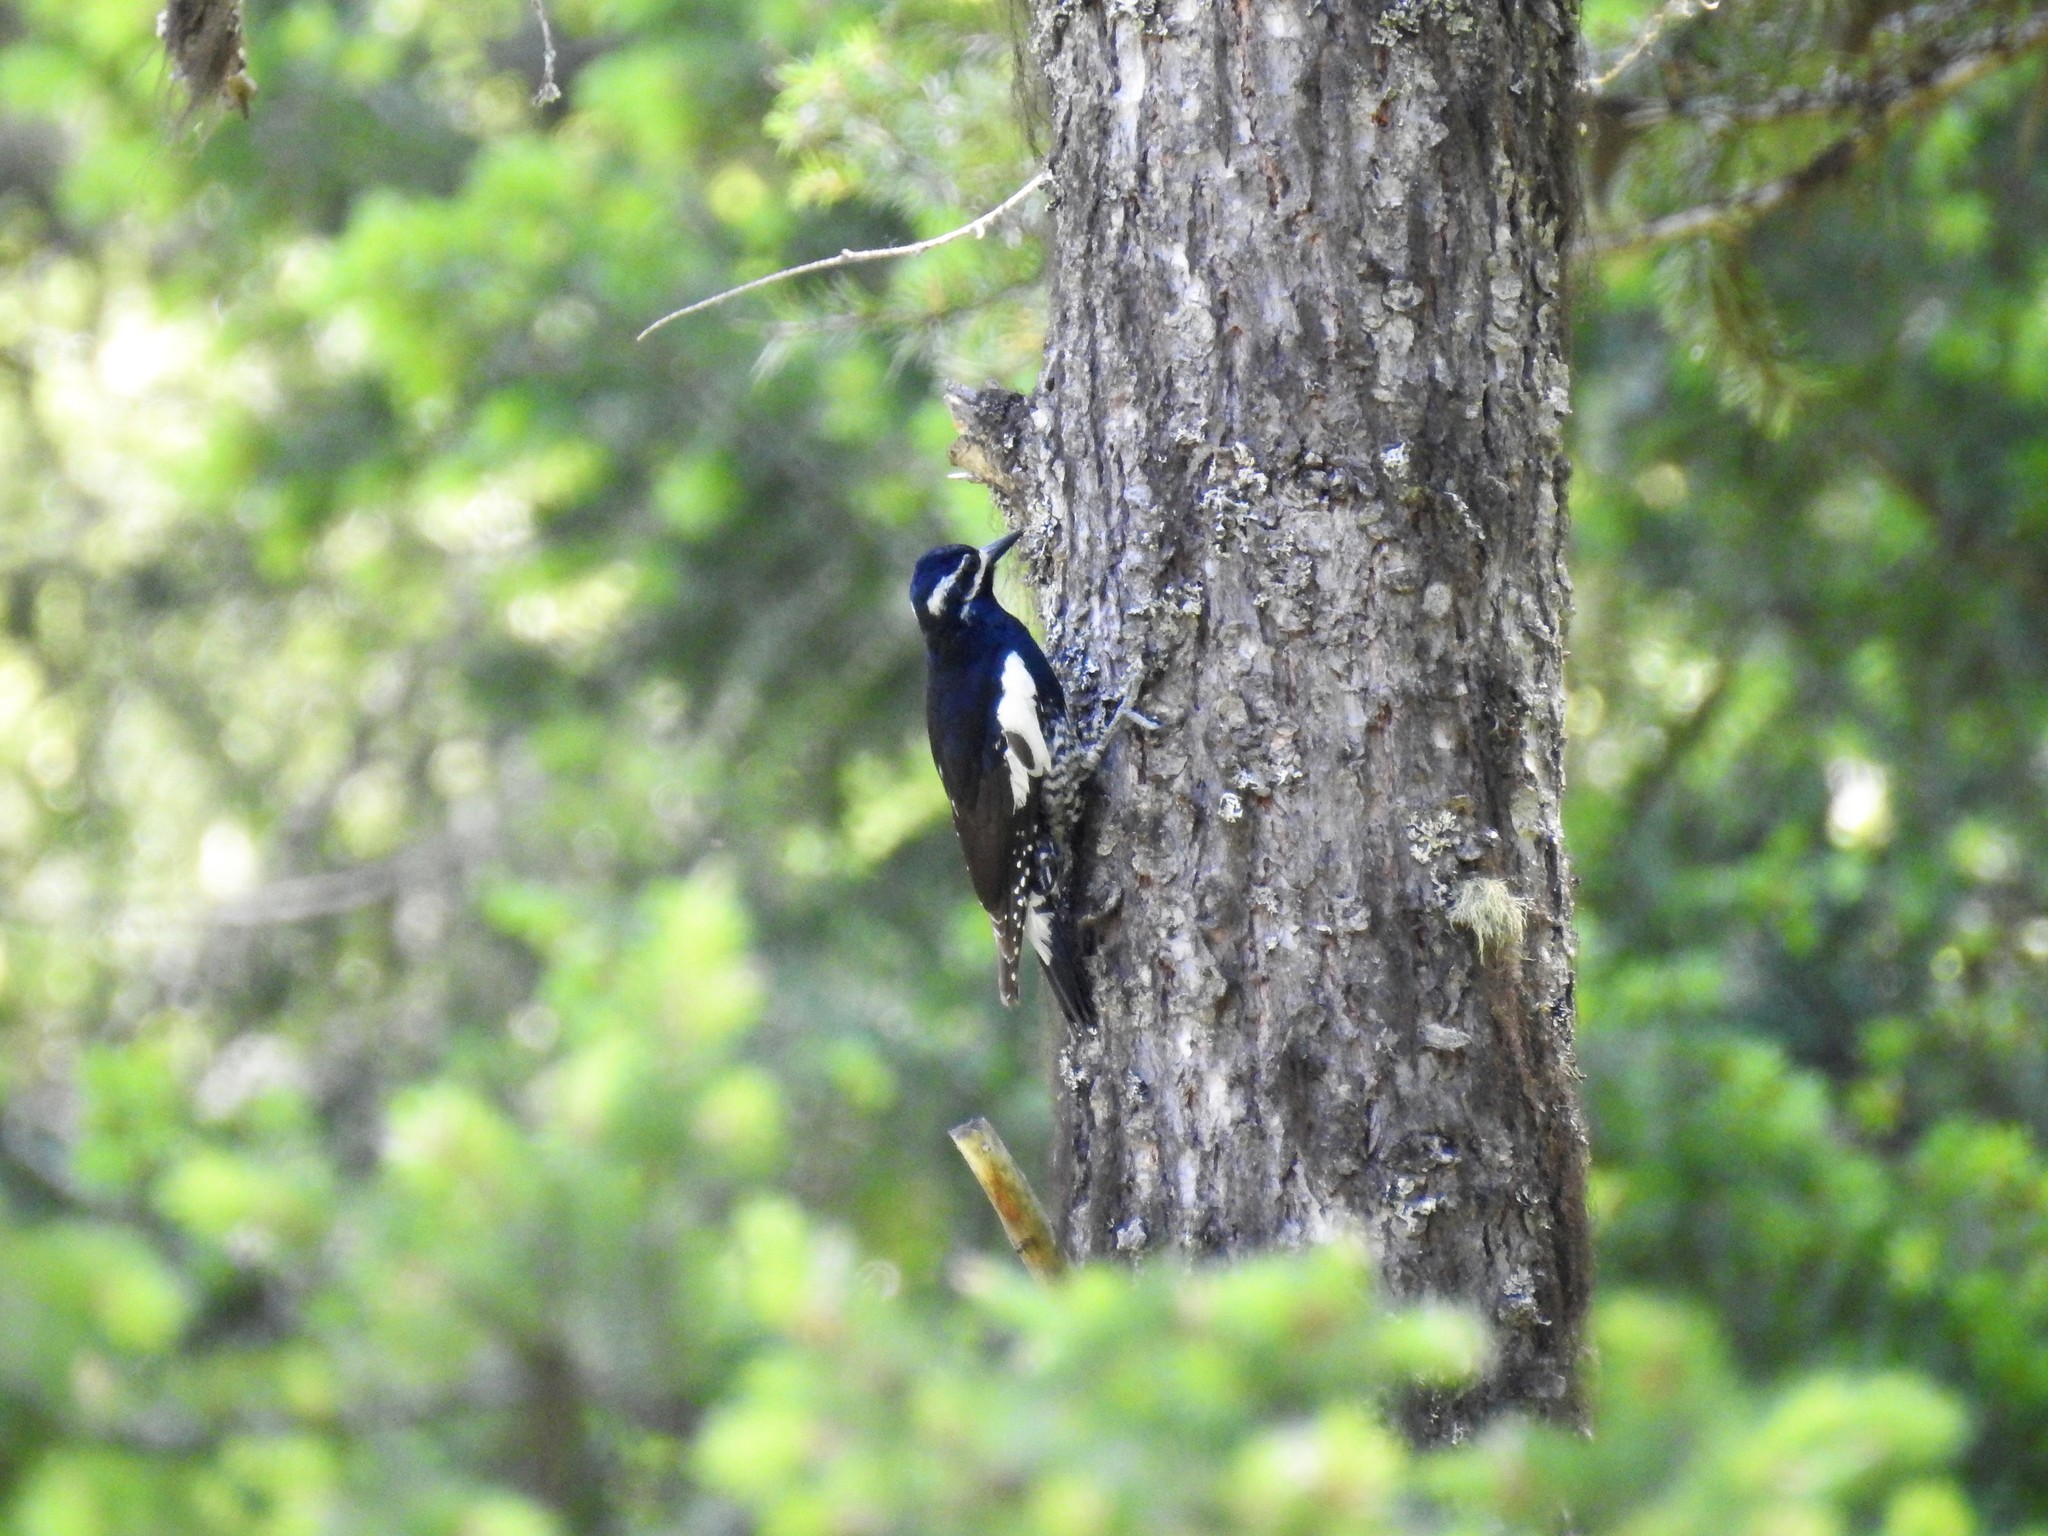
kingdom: Animalia
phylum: Chordata
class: Aves
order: Piciformes
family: Picidae
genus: Sphyrapicus
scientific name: Sphyrapicus thyroideus
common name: Williamson's sapsucker
